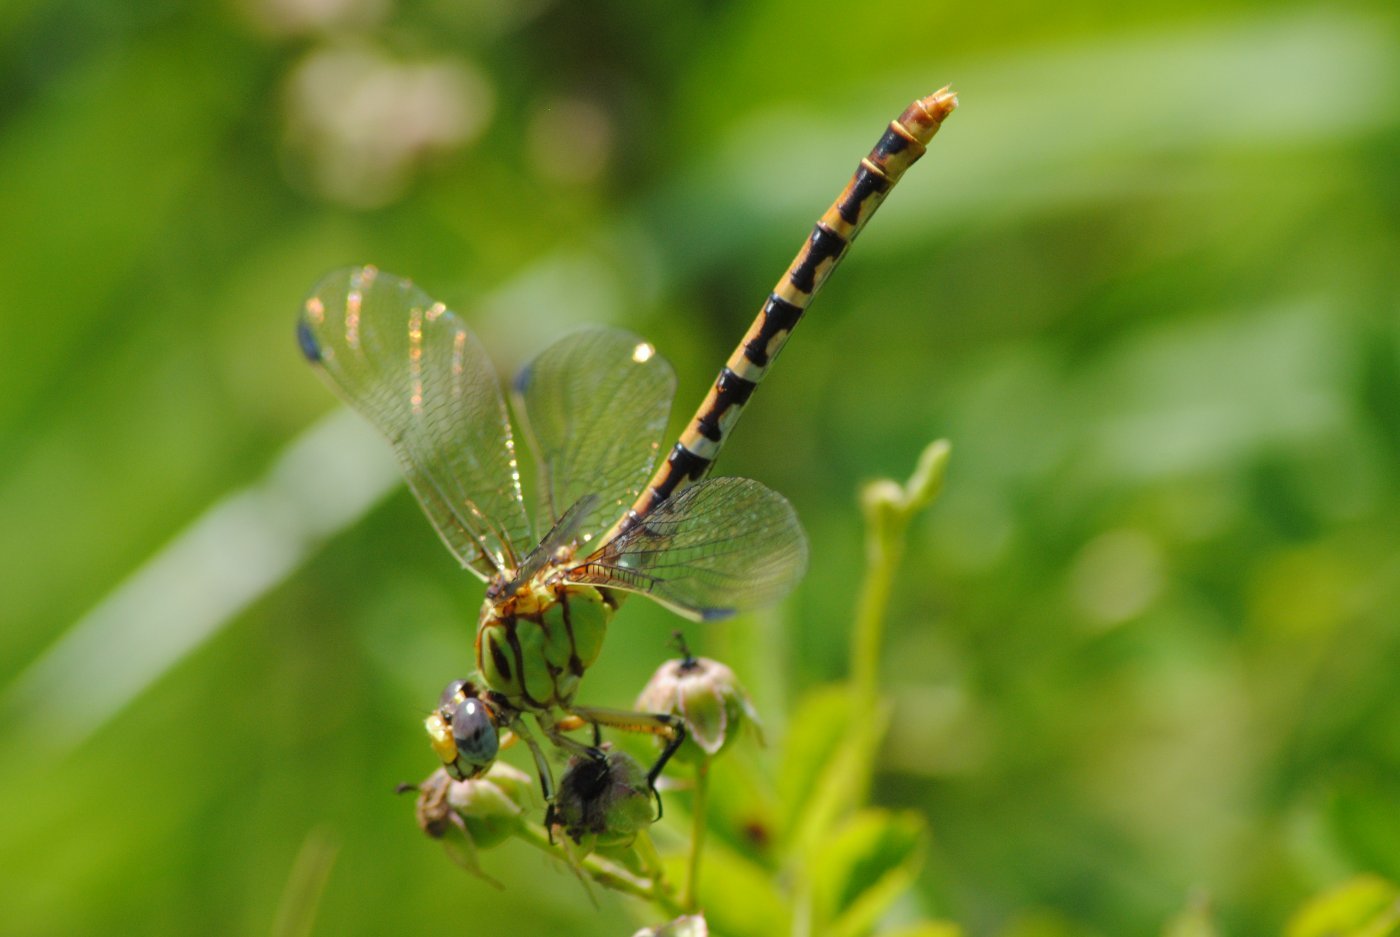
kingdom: Animalia
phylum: Arthropoda
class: Insecta
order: Odonata
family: Gomphidae
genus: Erpetogomphus
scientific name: Erpetogomphus designatus
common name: Eastern ringtail
